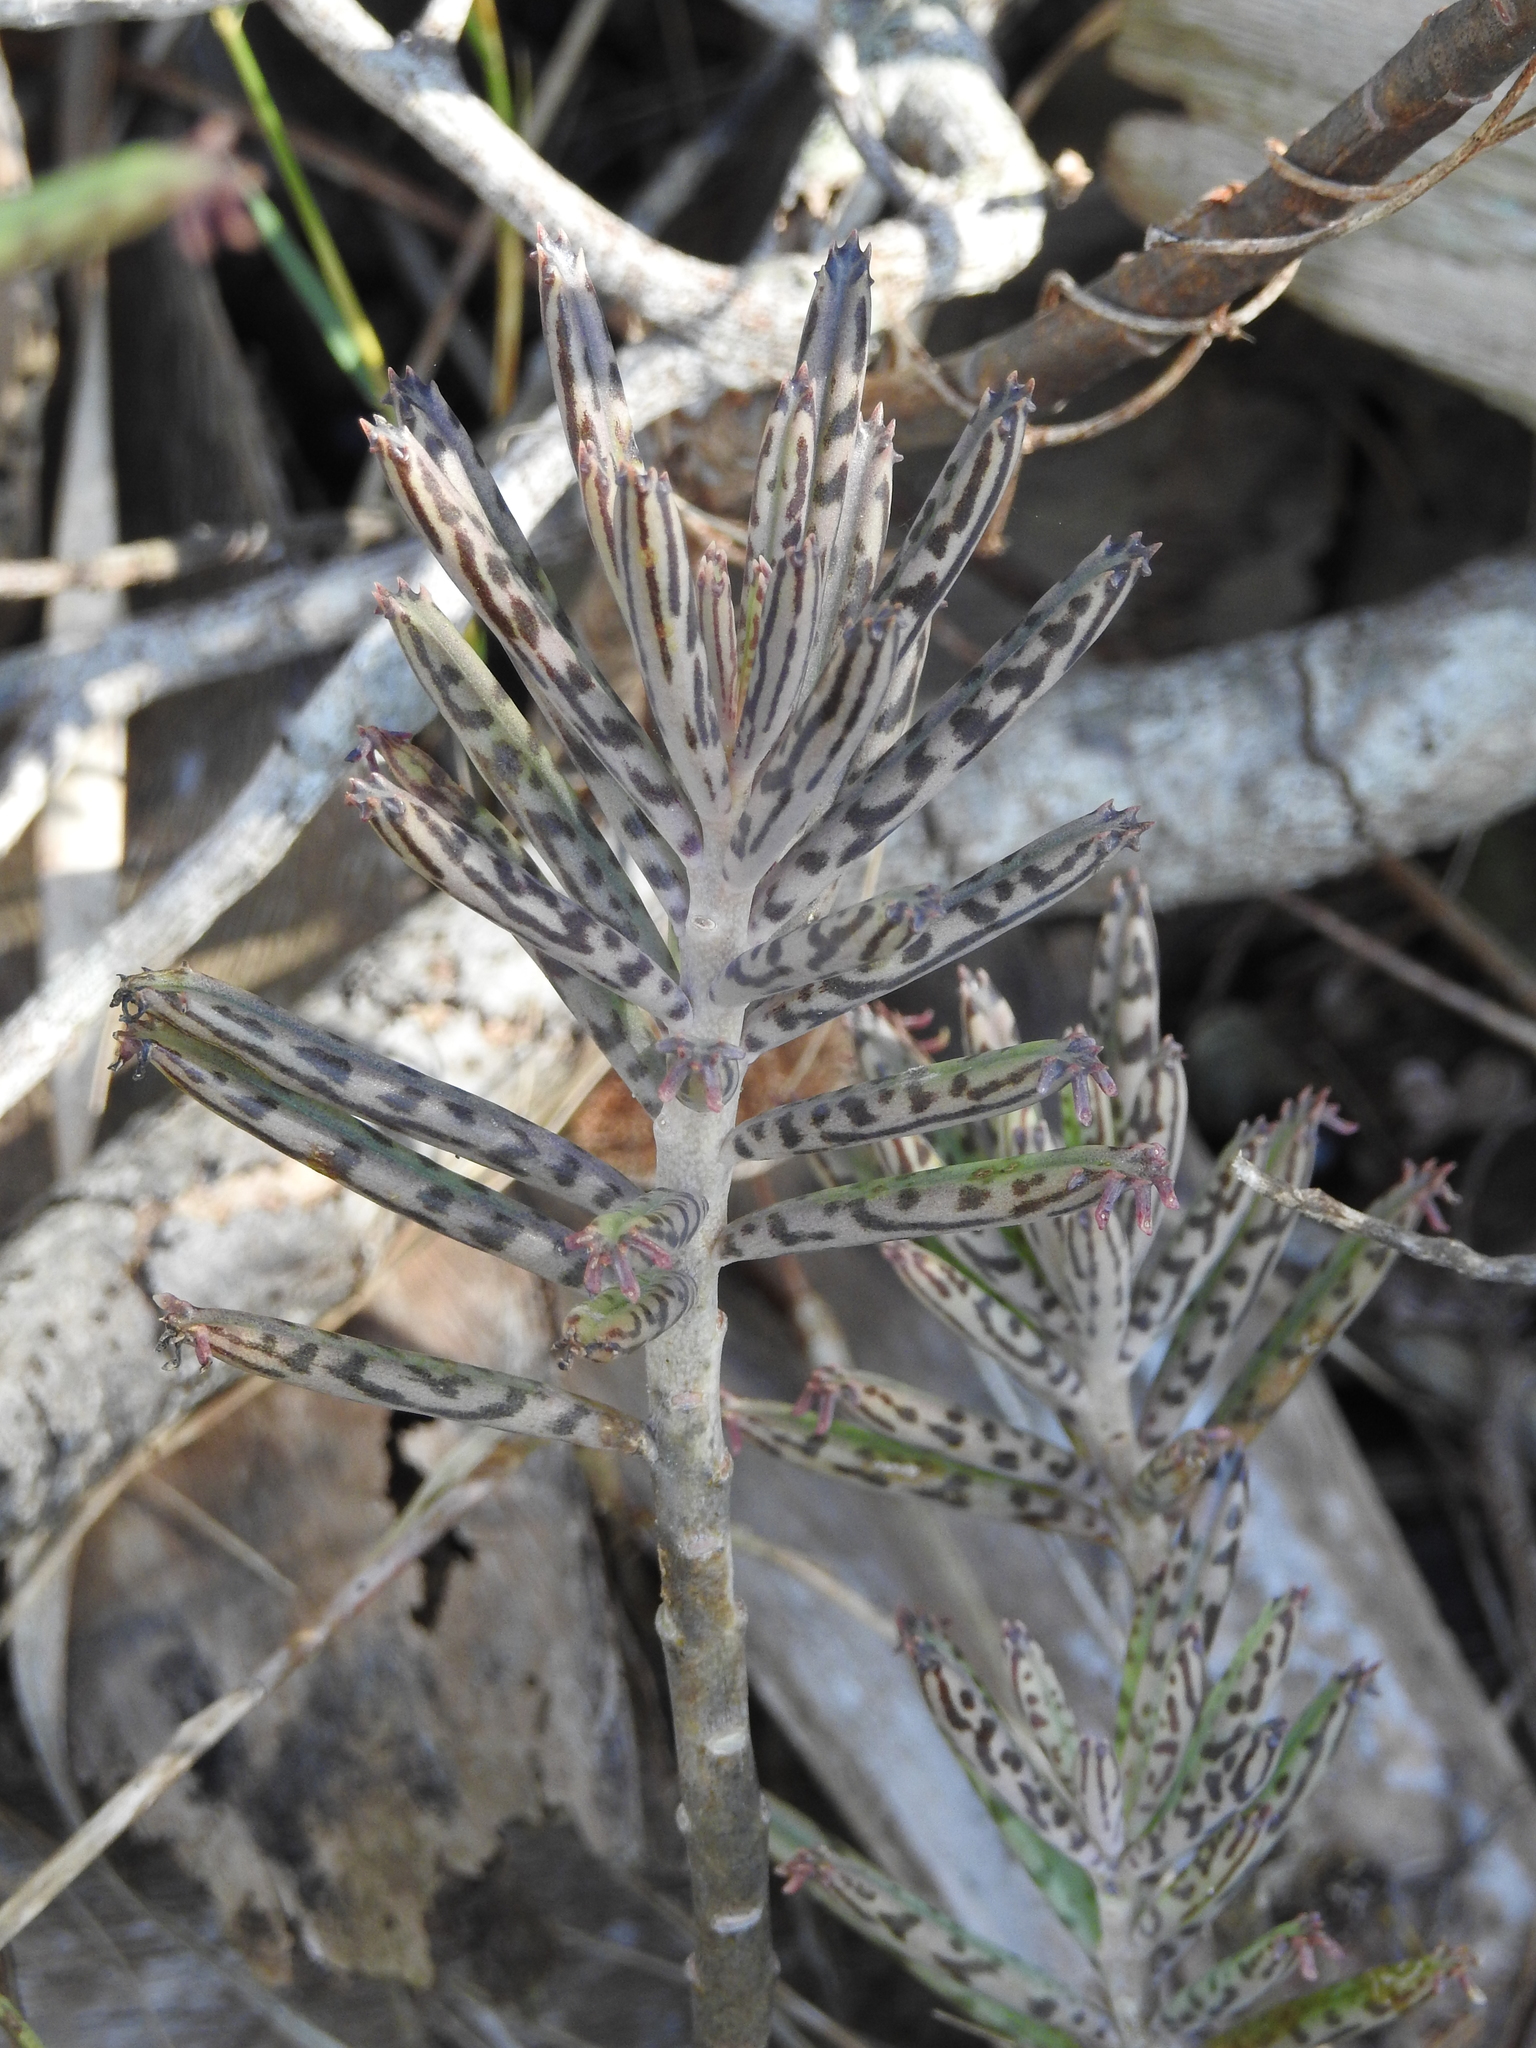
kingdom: Plantae
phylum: Tracheophyta
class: Magnoliopsida
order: Saxifragales
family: Crassulaceae
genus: Kalanchoe
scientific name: Kalanchoe delagoensis
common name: Chandelier plant
